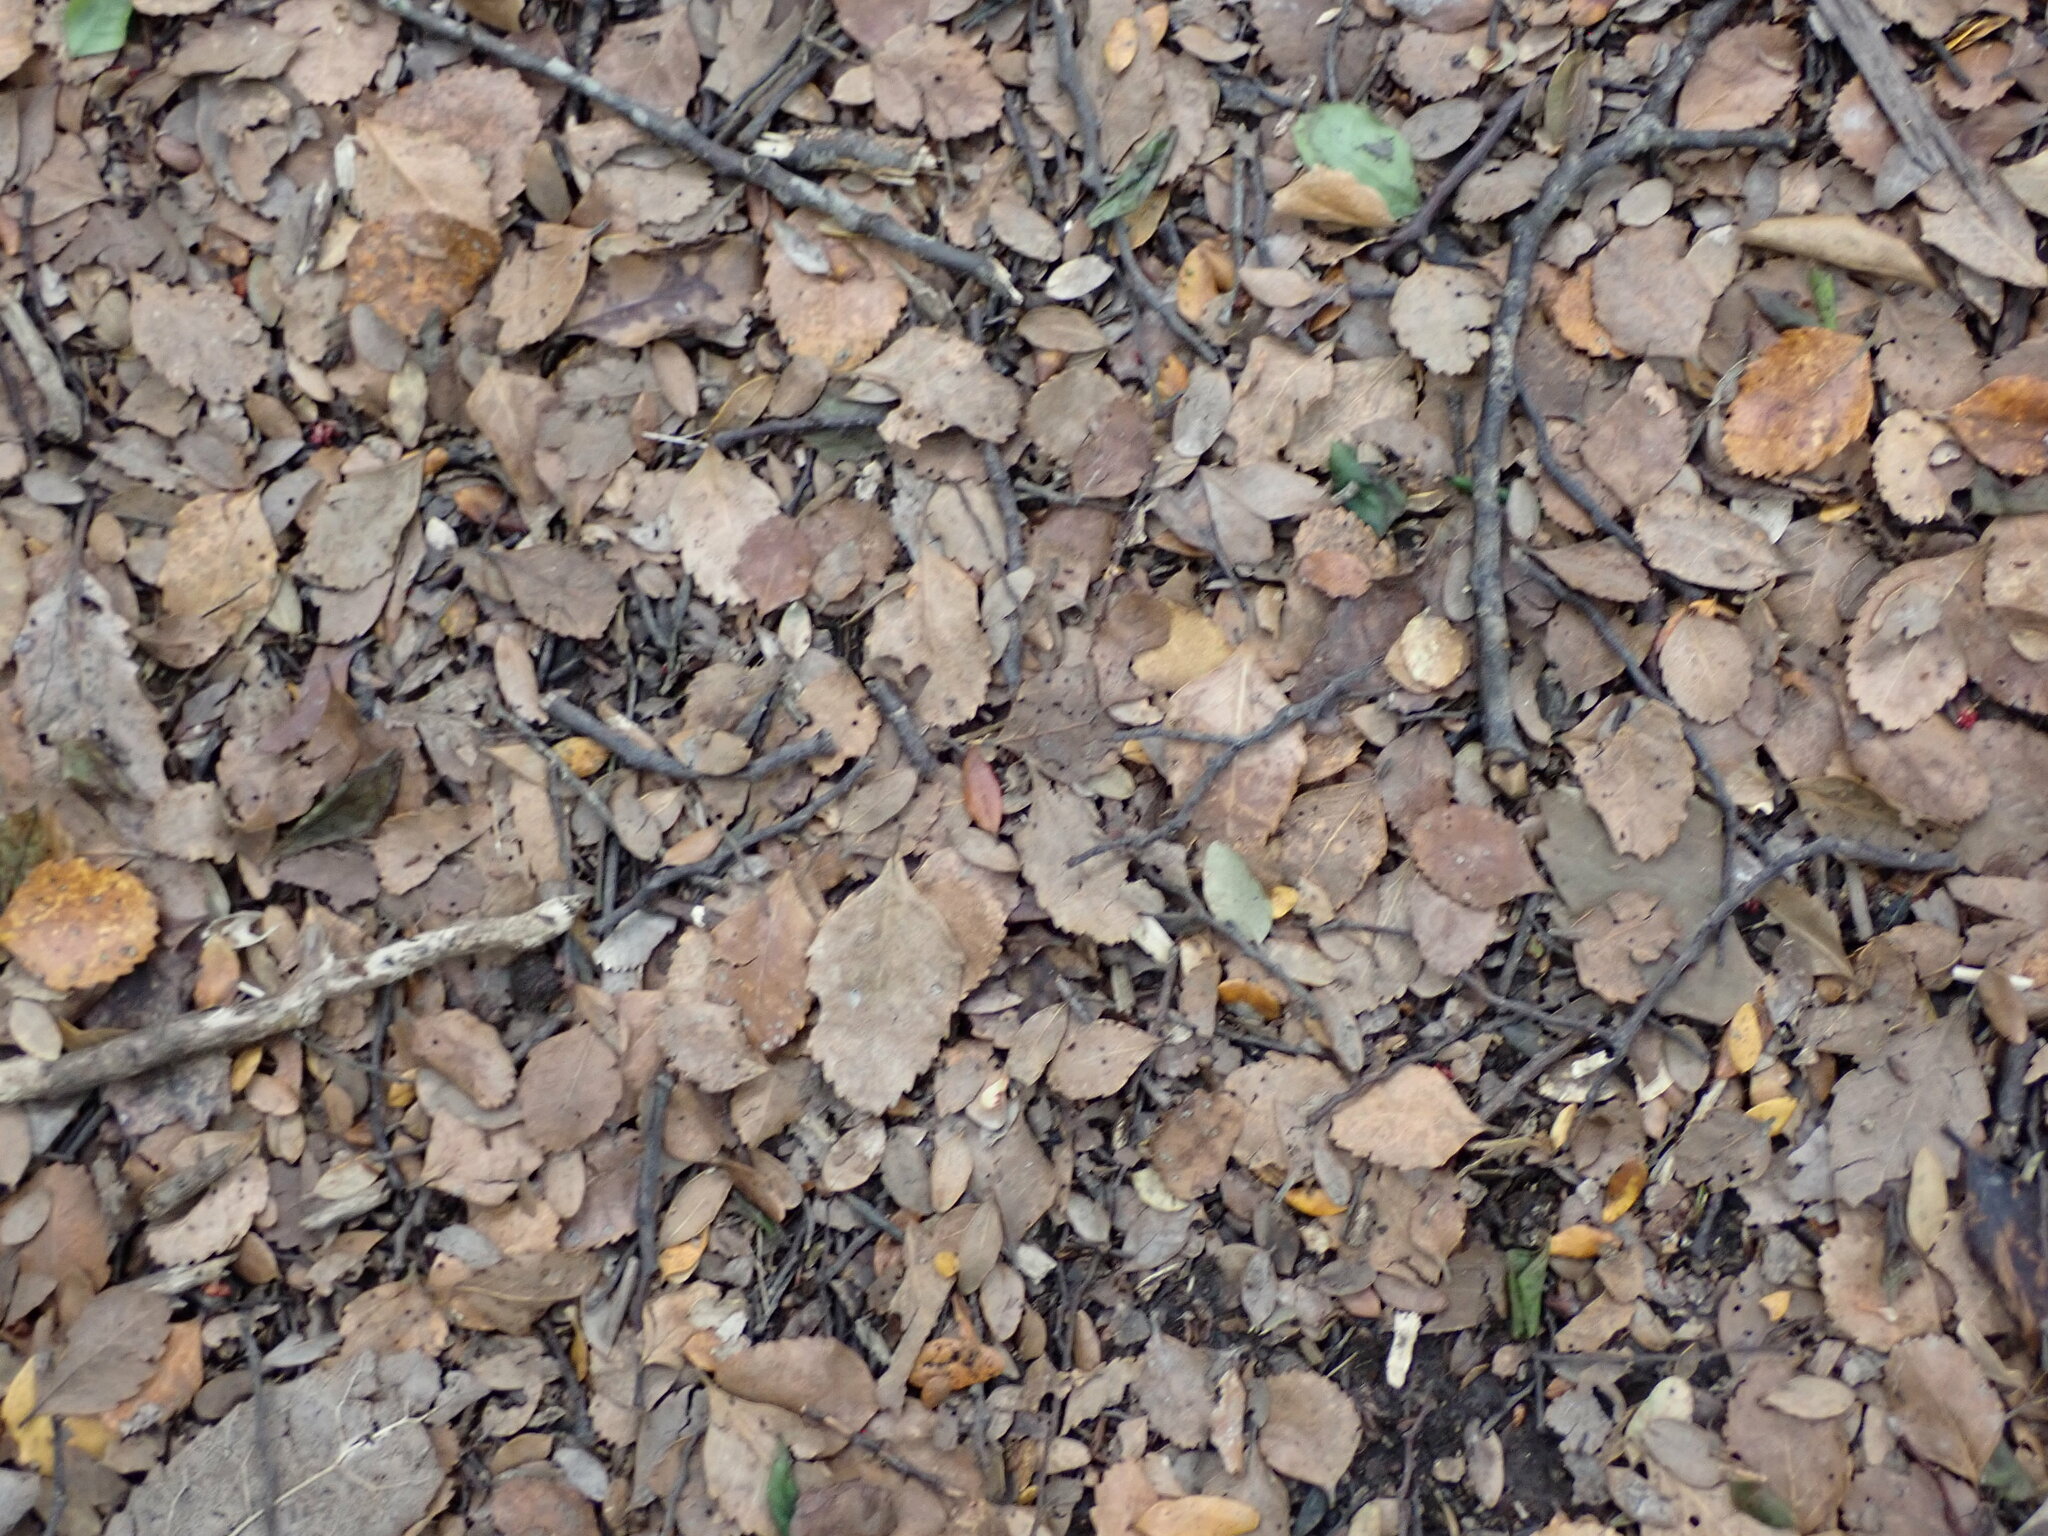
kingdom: Plantae
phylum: Tracheophyta
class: Magnoliopsida
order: Fagales
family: Nothofagaceae
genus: Nothofagus
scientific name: Nothofagus truncata
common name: Hard beech
